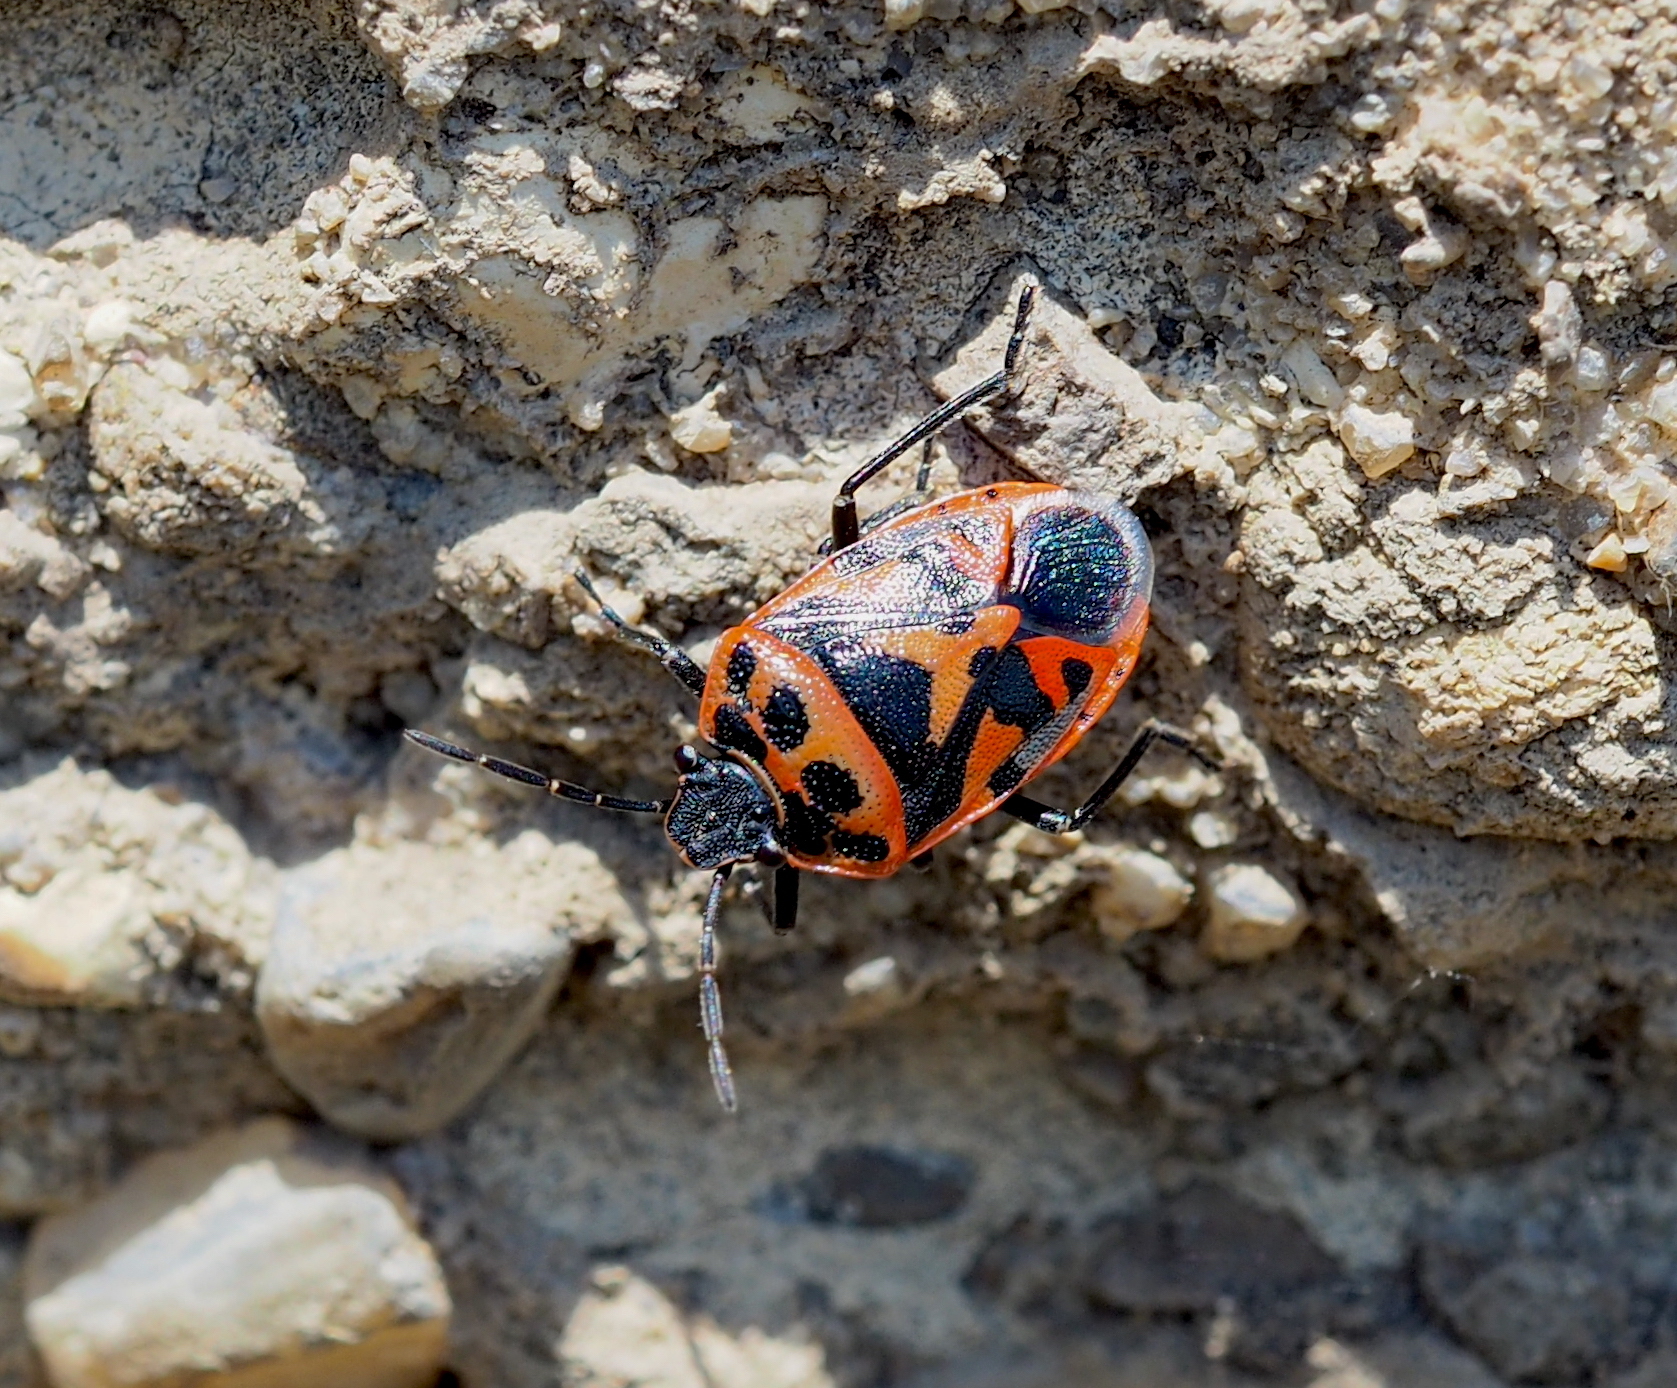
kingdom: Animalia
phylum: Arthropoda
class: Insecta
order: Hemiptera
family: Pentatomidae
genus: Eurydema
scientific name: Eurydema ornata
